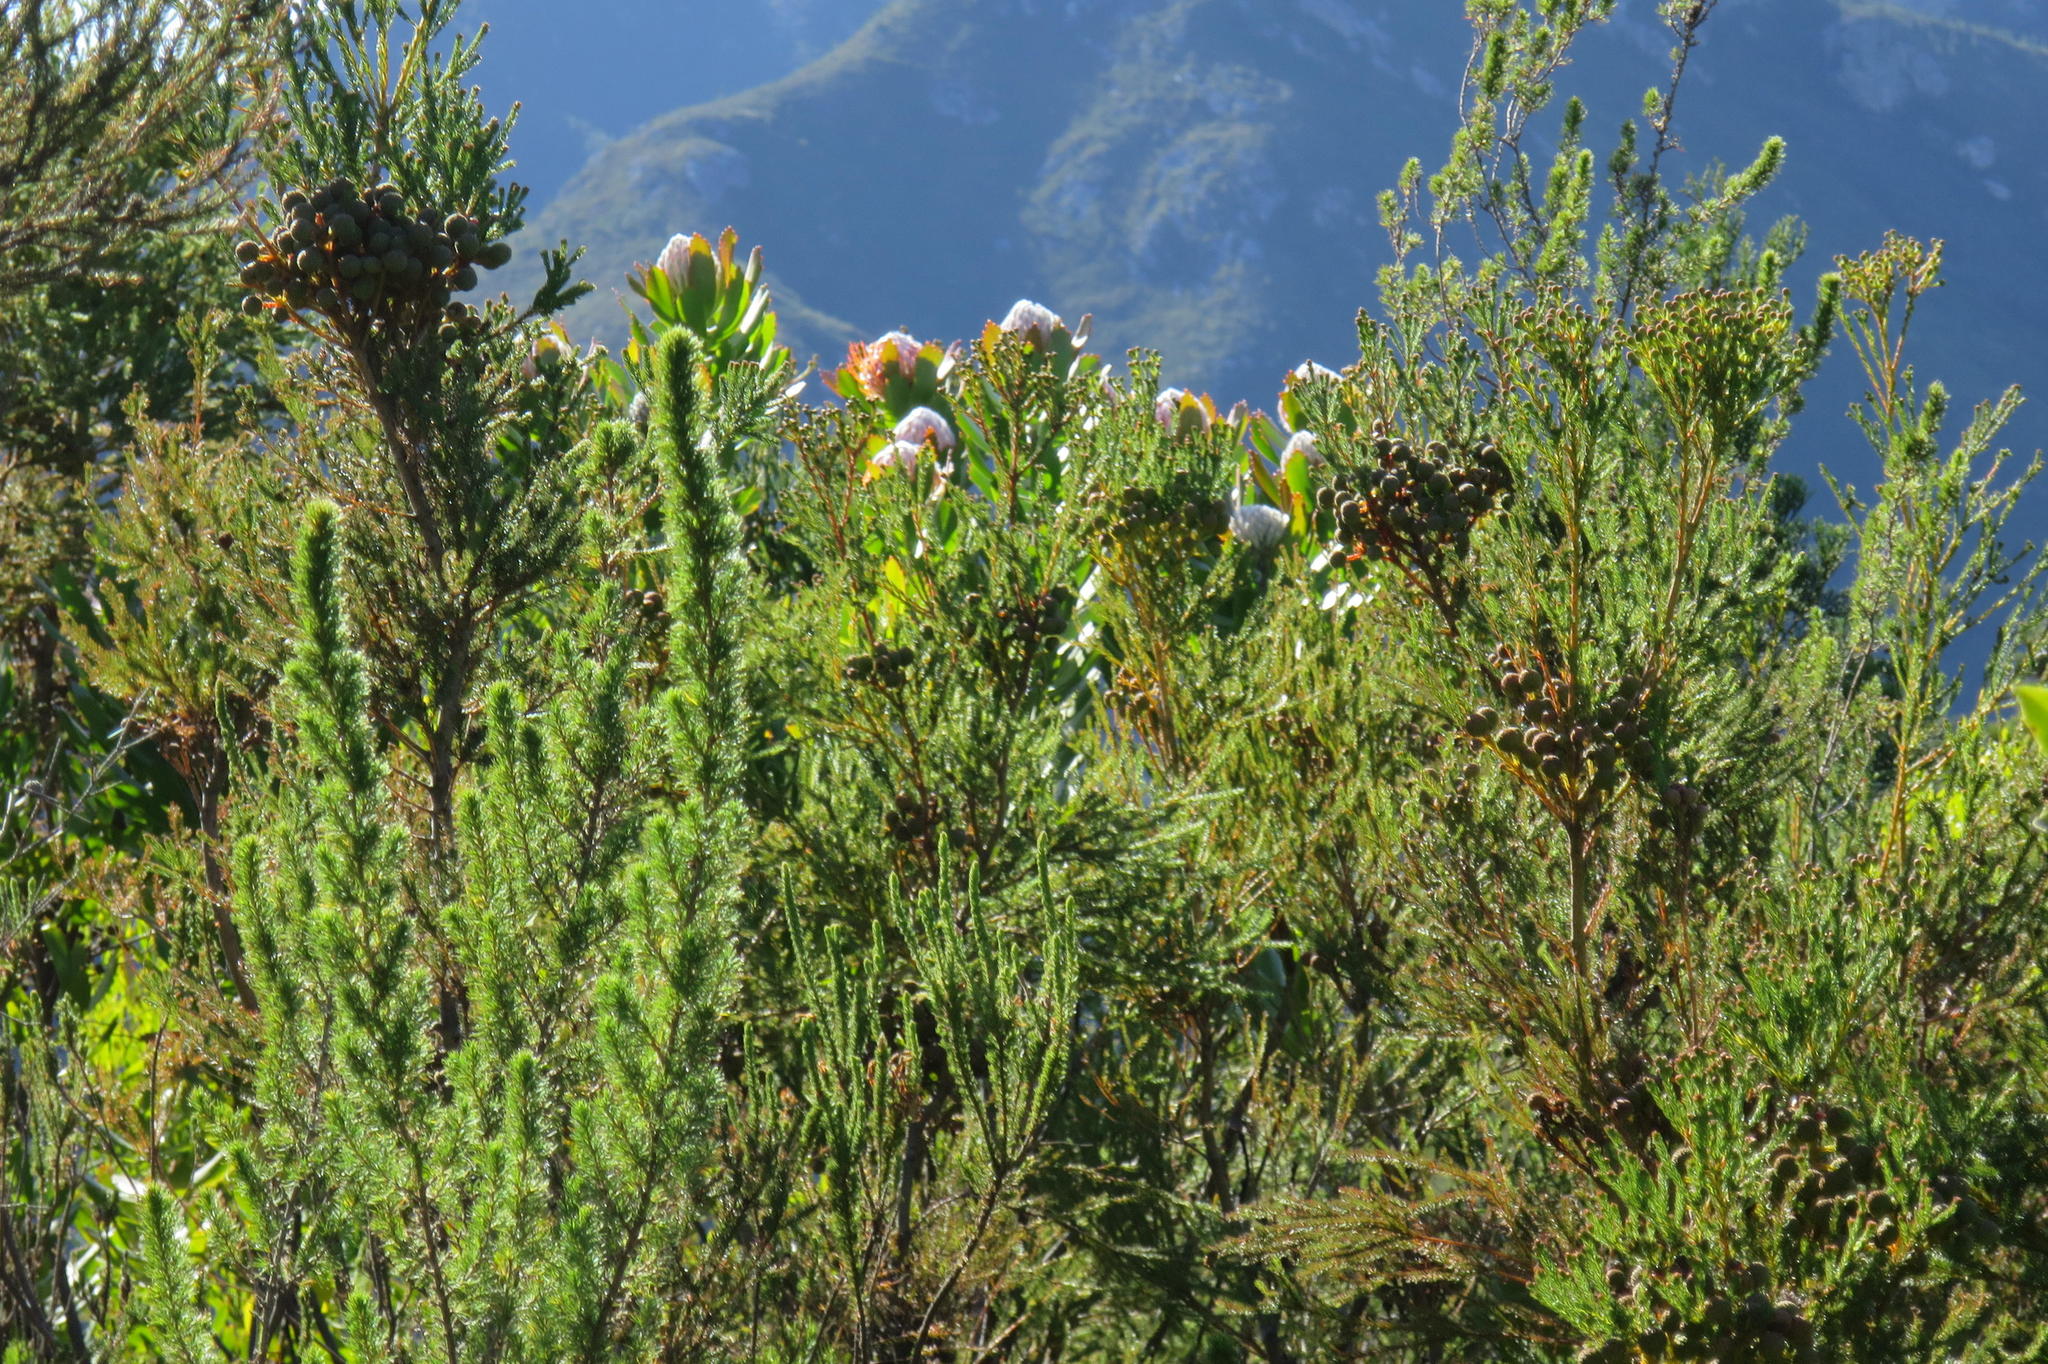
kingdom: Plantae
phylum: Tracheophyta
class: Magnoliopsida
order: Proteales
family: Proteaceae
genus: Leucospermum
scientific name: Leucospermum glabrum
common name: Outeniqua pincushion
